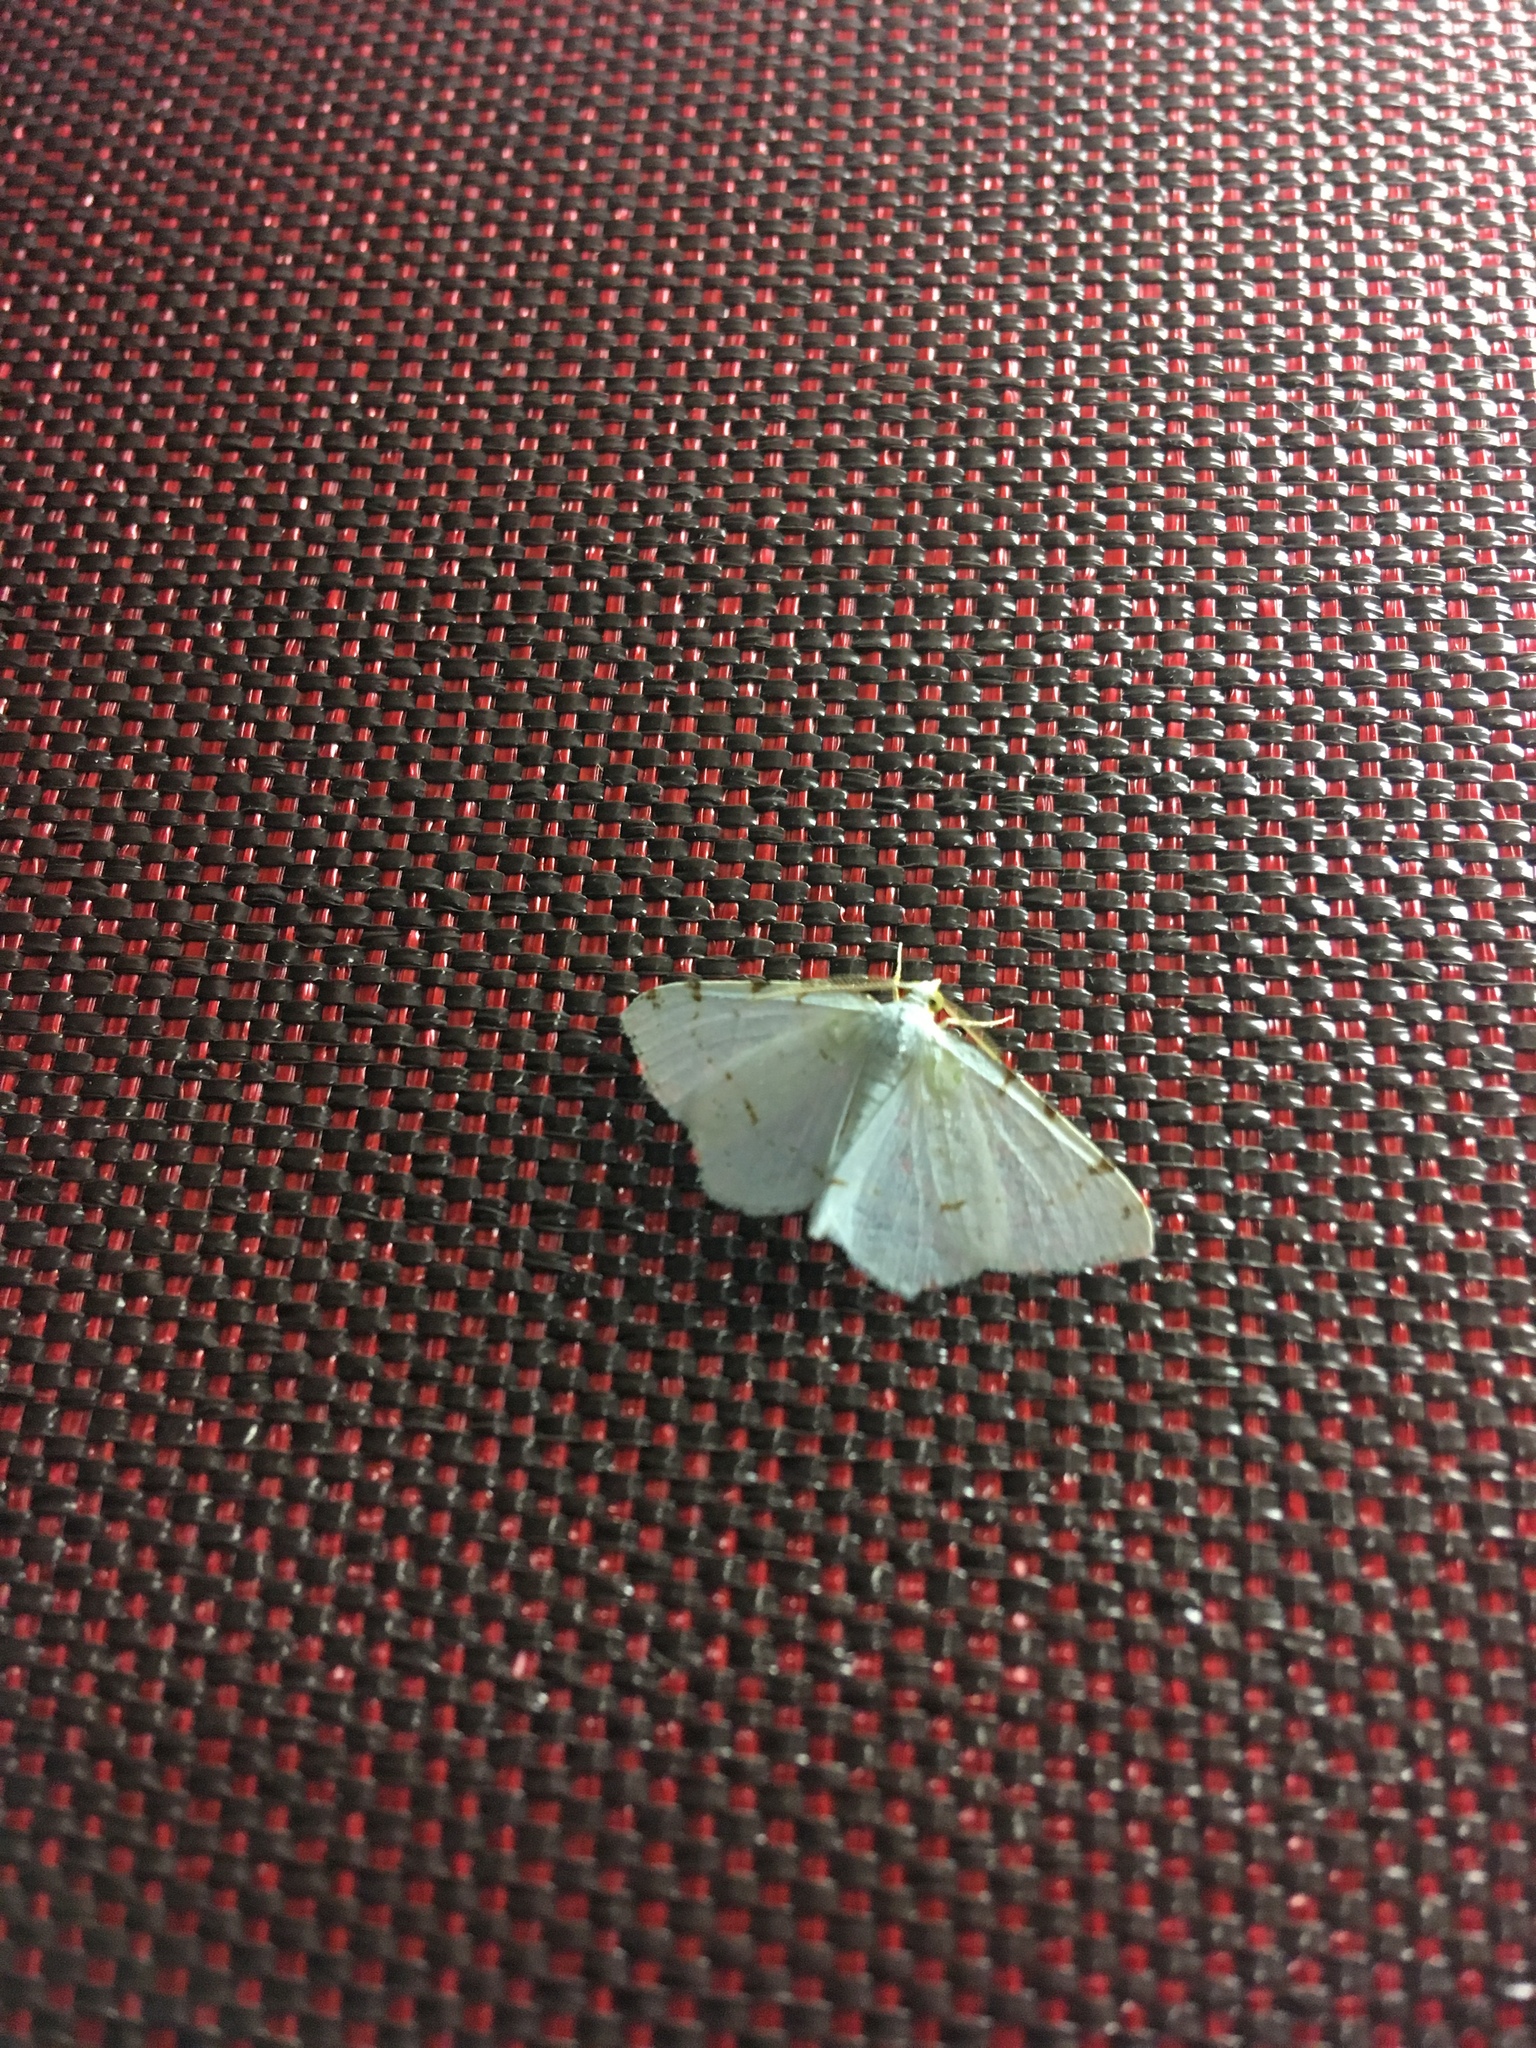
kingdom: Animalia
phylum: Arthropoda
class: Insecta
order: Lepidoptera
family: Geometridae
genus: Macaria
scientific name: Macaria pustularia
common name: Lesser maple spanworm moth
